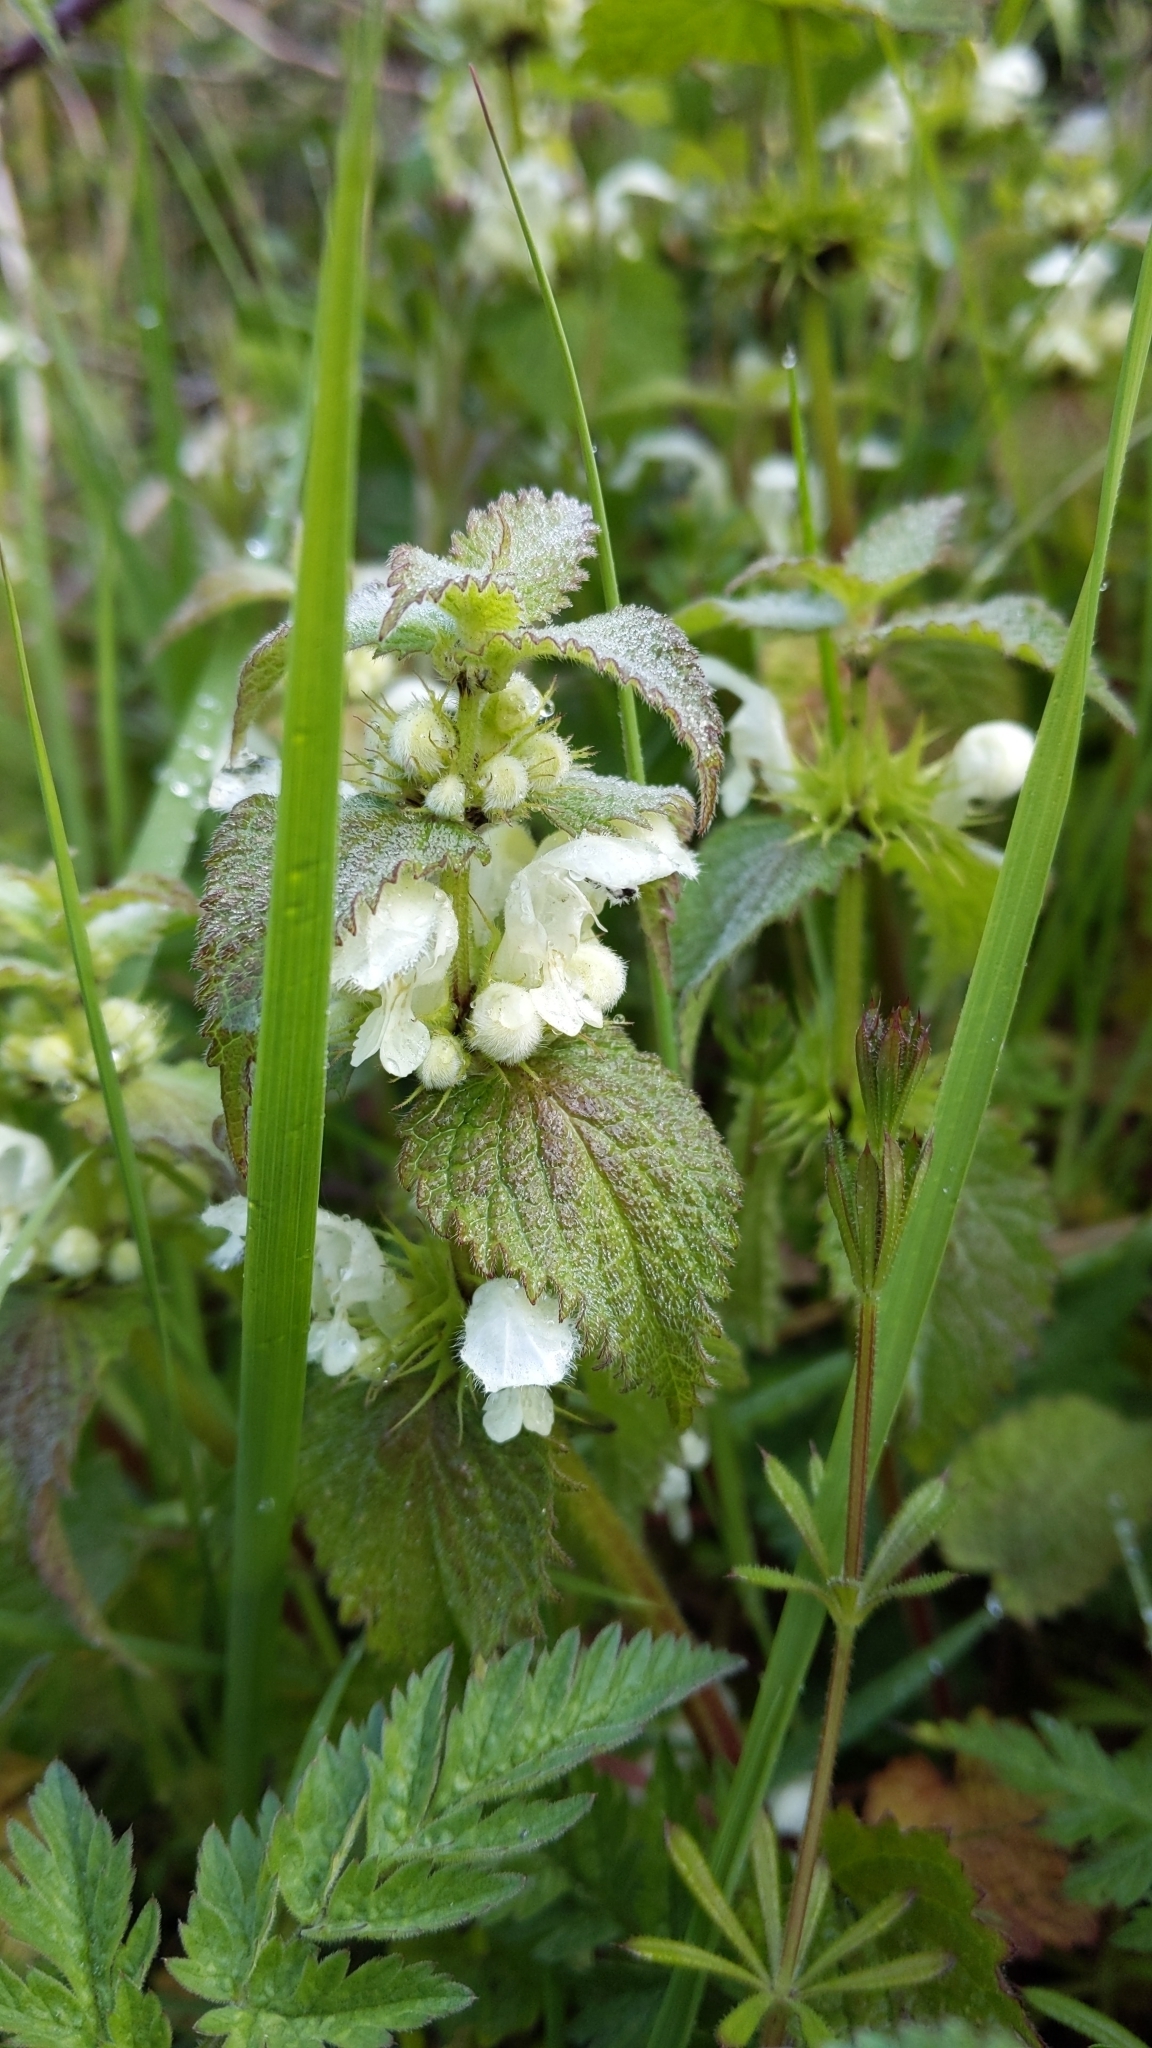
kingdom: Plantae
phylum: Tracheophyta
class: Magnoliopsida
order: Lamiales
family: Lamiaceae
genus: Lamium
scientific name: Lamium album
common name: White dead-nettle
